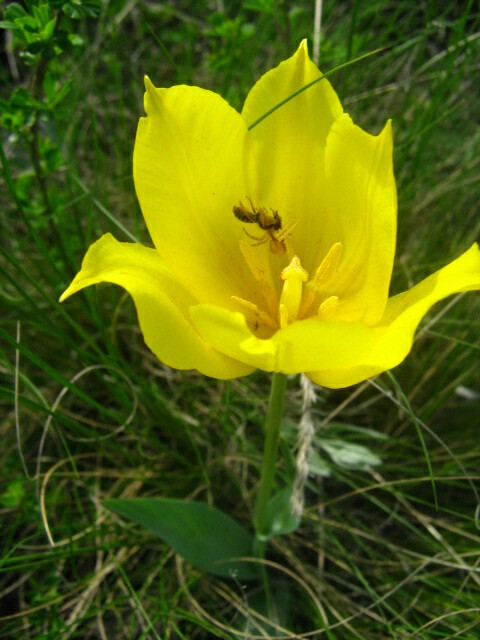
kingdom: Plantae
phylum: Tracheophyta
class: Liliopsida
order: Liliales
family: Liliaceae
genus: Tulipa
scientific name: Tulipa suaveolens
